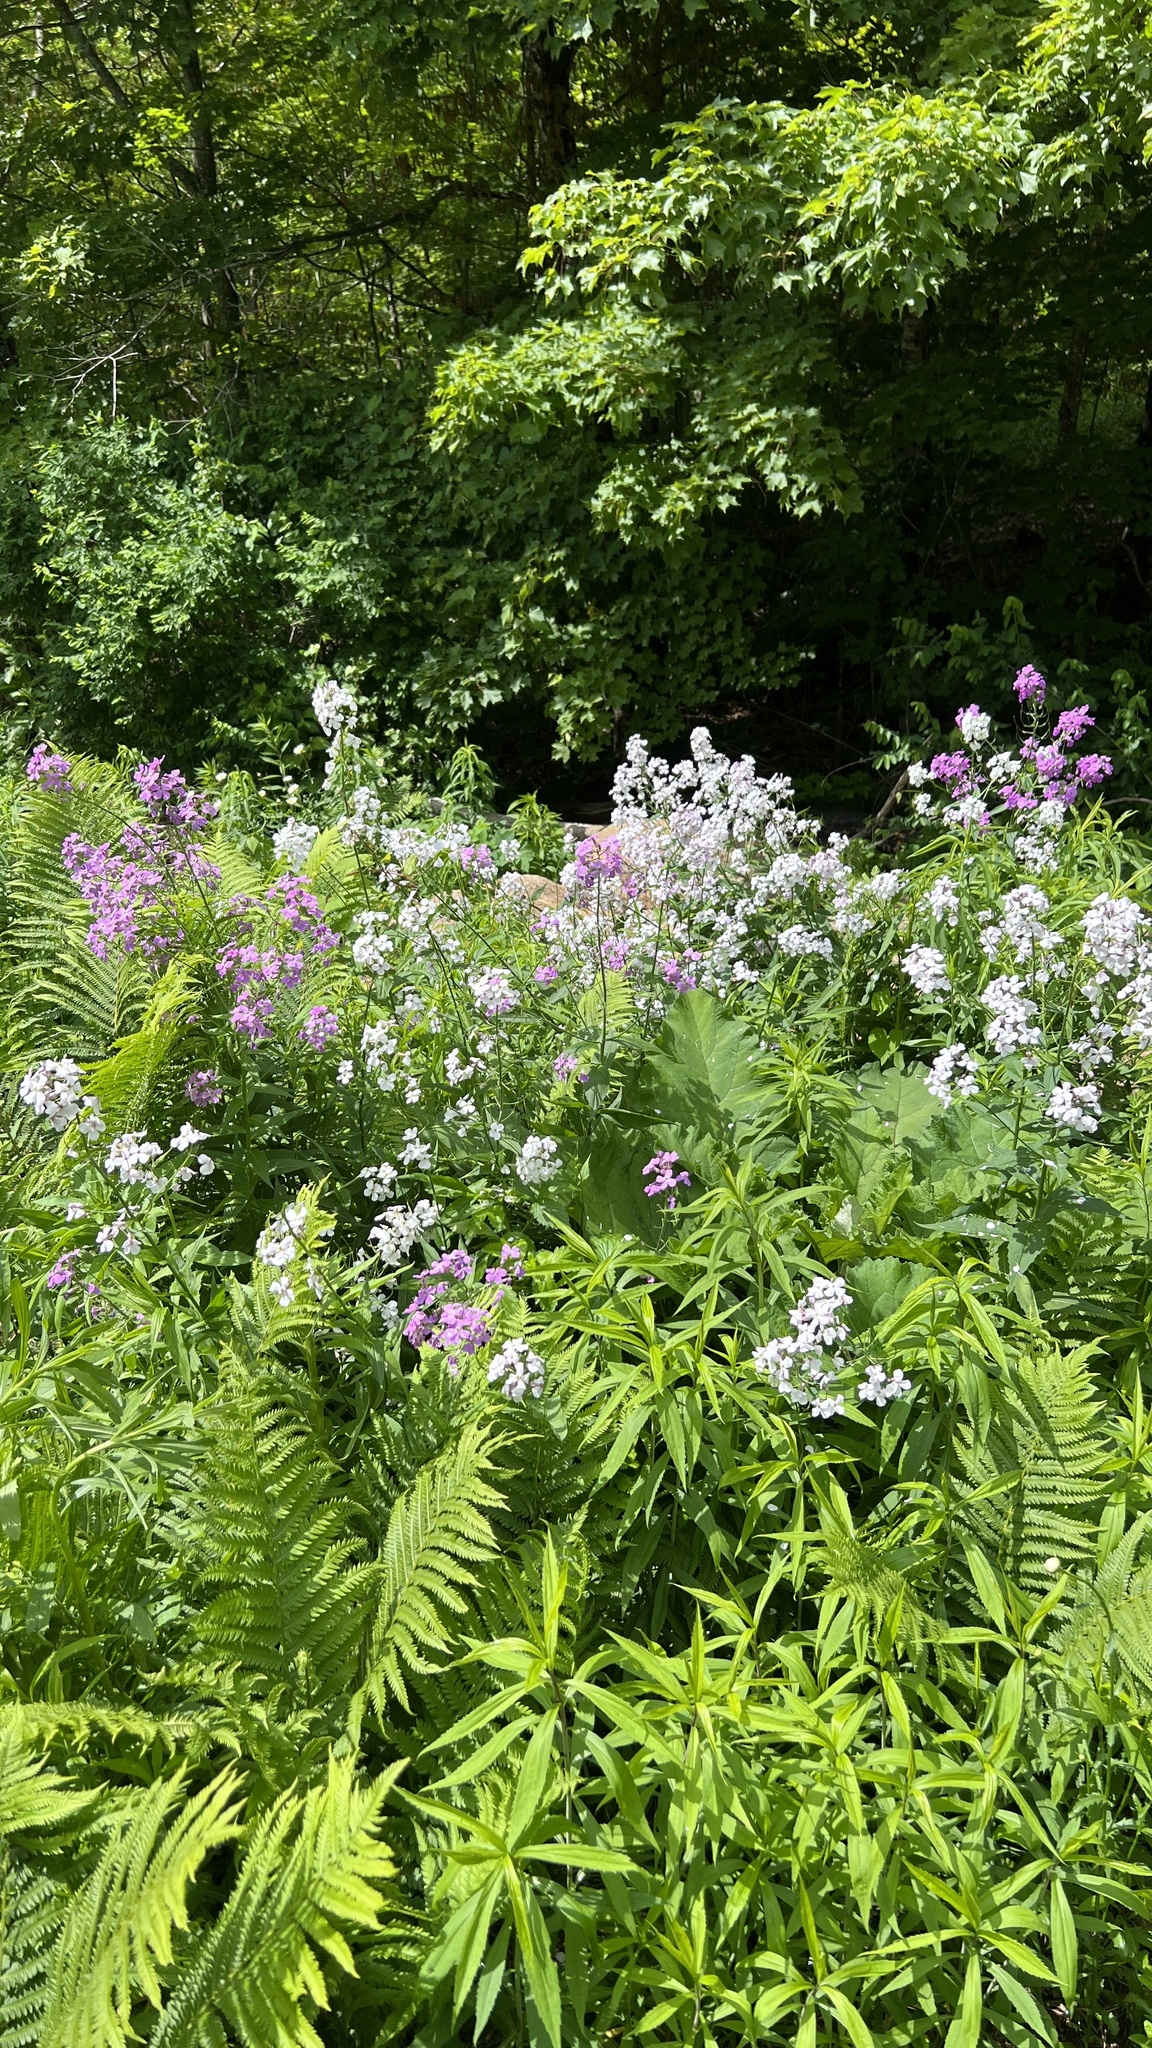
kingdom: Plantae
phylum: Tracheophyta
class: Magnoliopsida
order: Brassicales
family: Brassicaceae
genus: Hesperis
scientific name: Hesperis matronalis
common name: Dame's-violet
